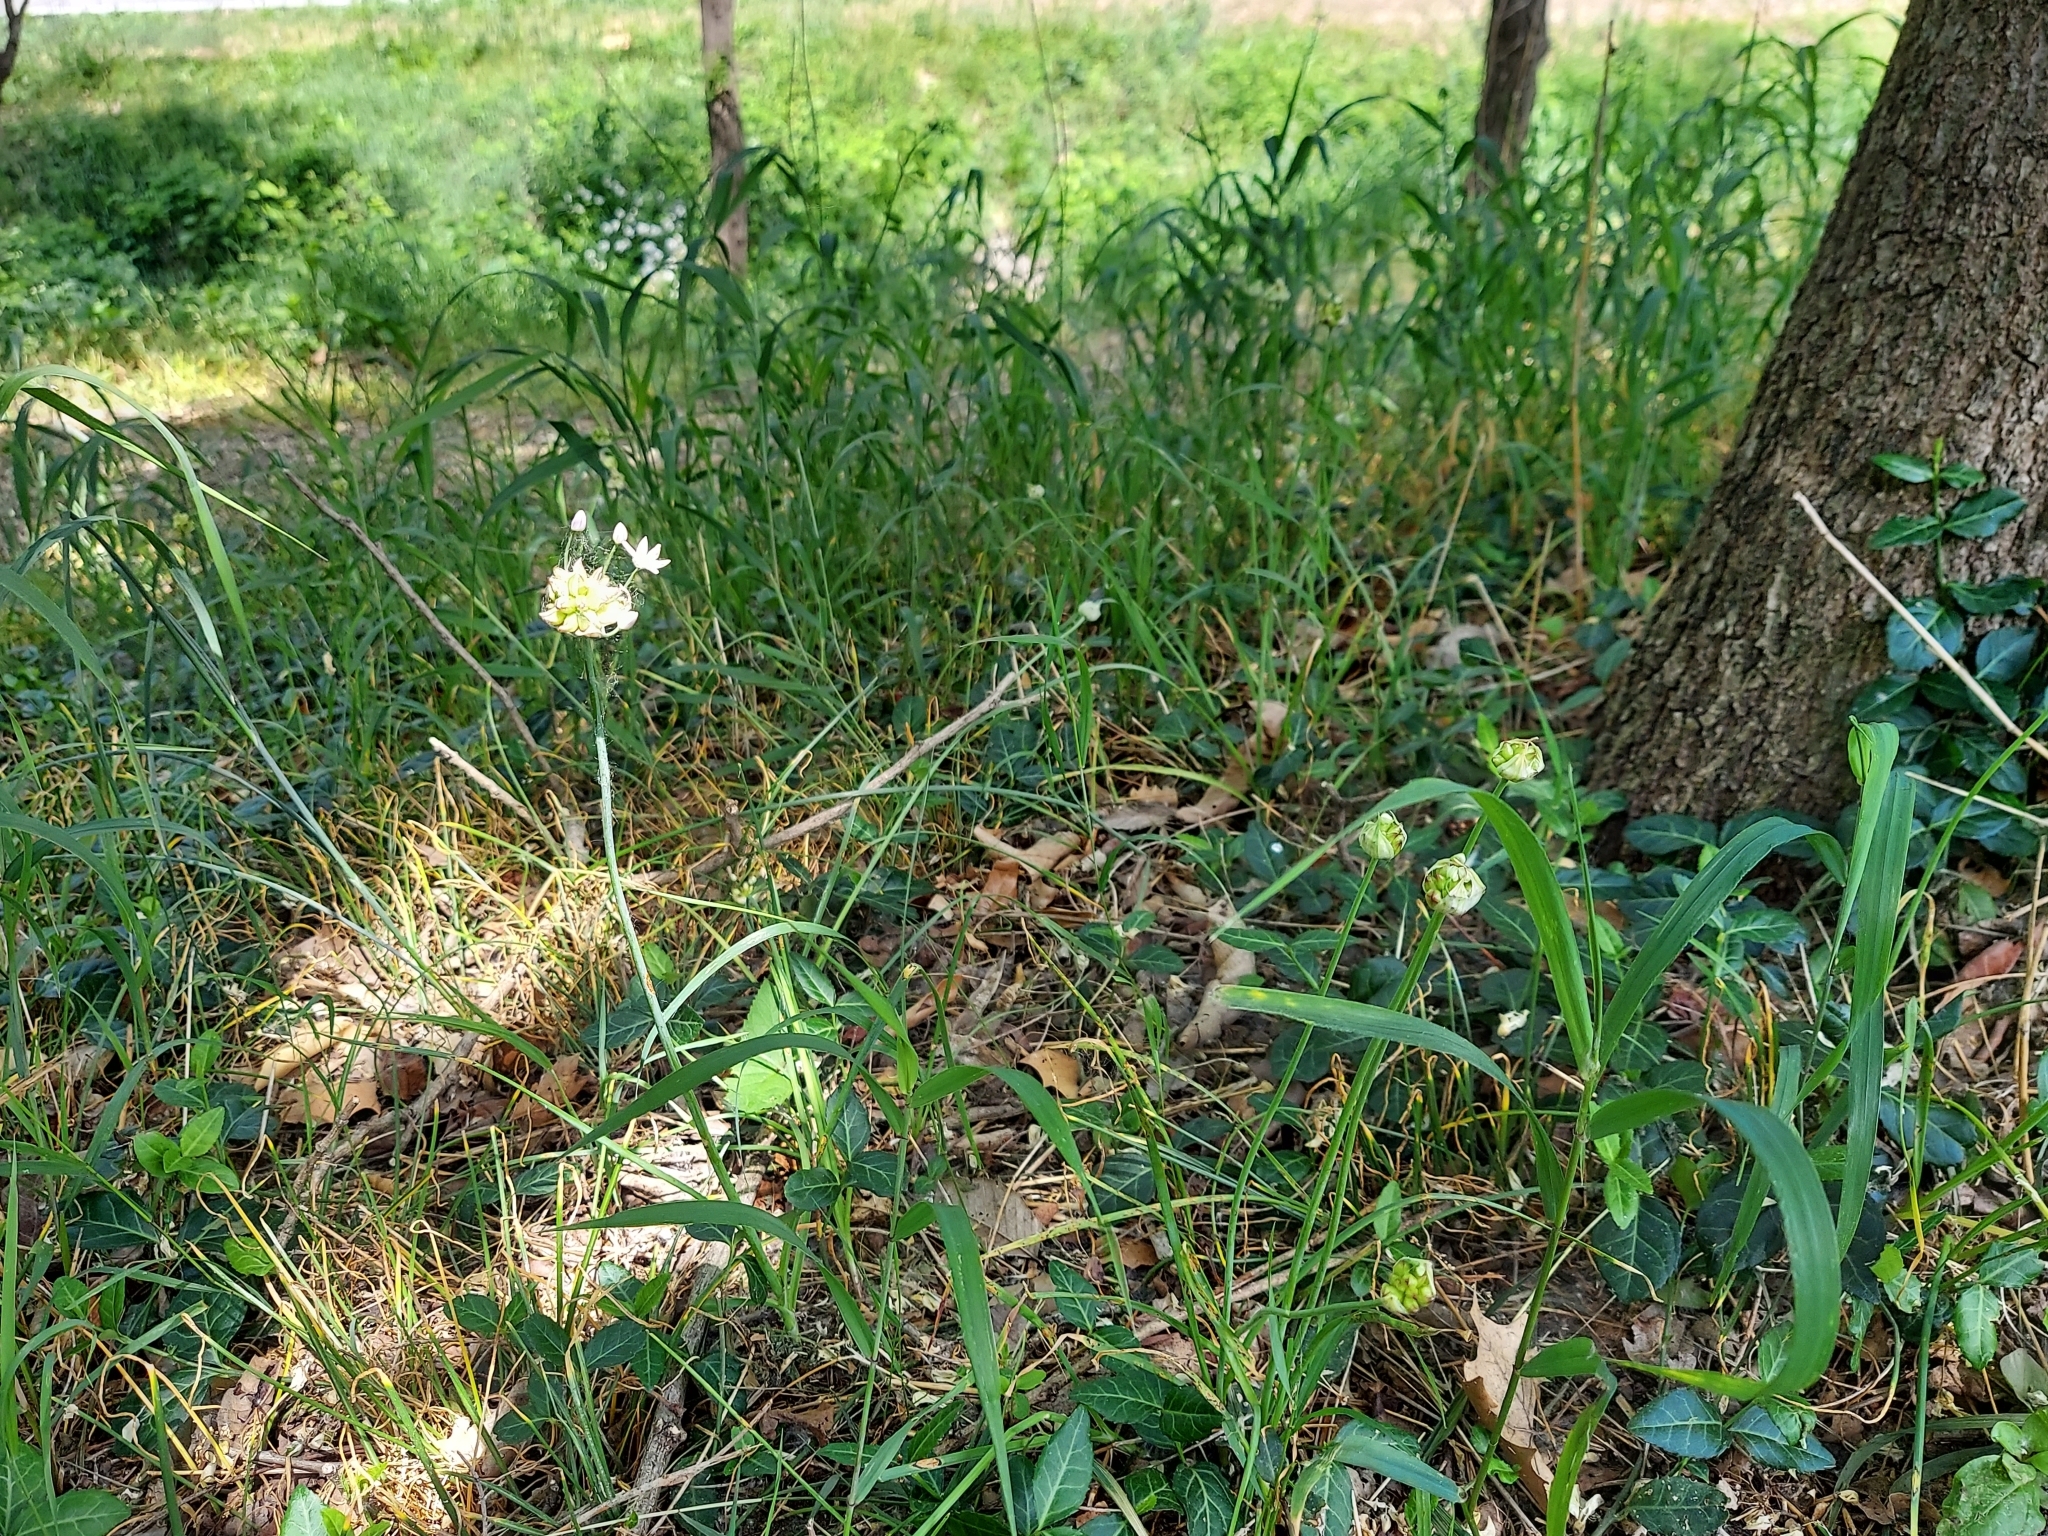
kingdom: Plantae
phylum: Tracheophyta
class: Liliopsida
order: Asparagales
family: Amaryllidaceae
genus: Allium
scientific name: Allium canadense
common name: Meadow garlic
